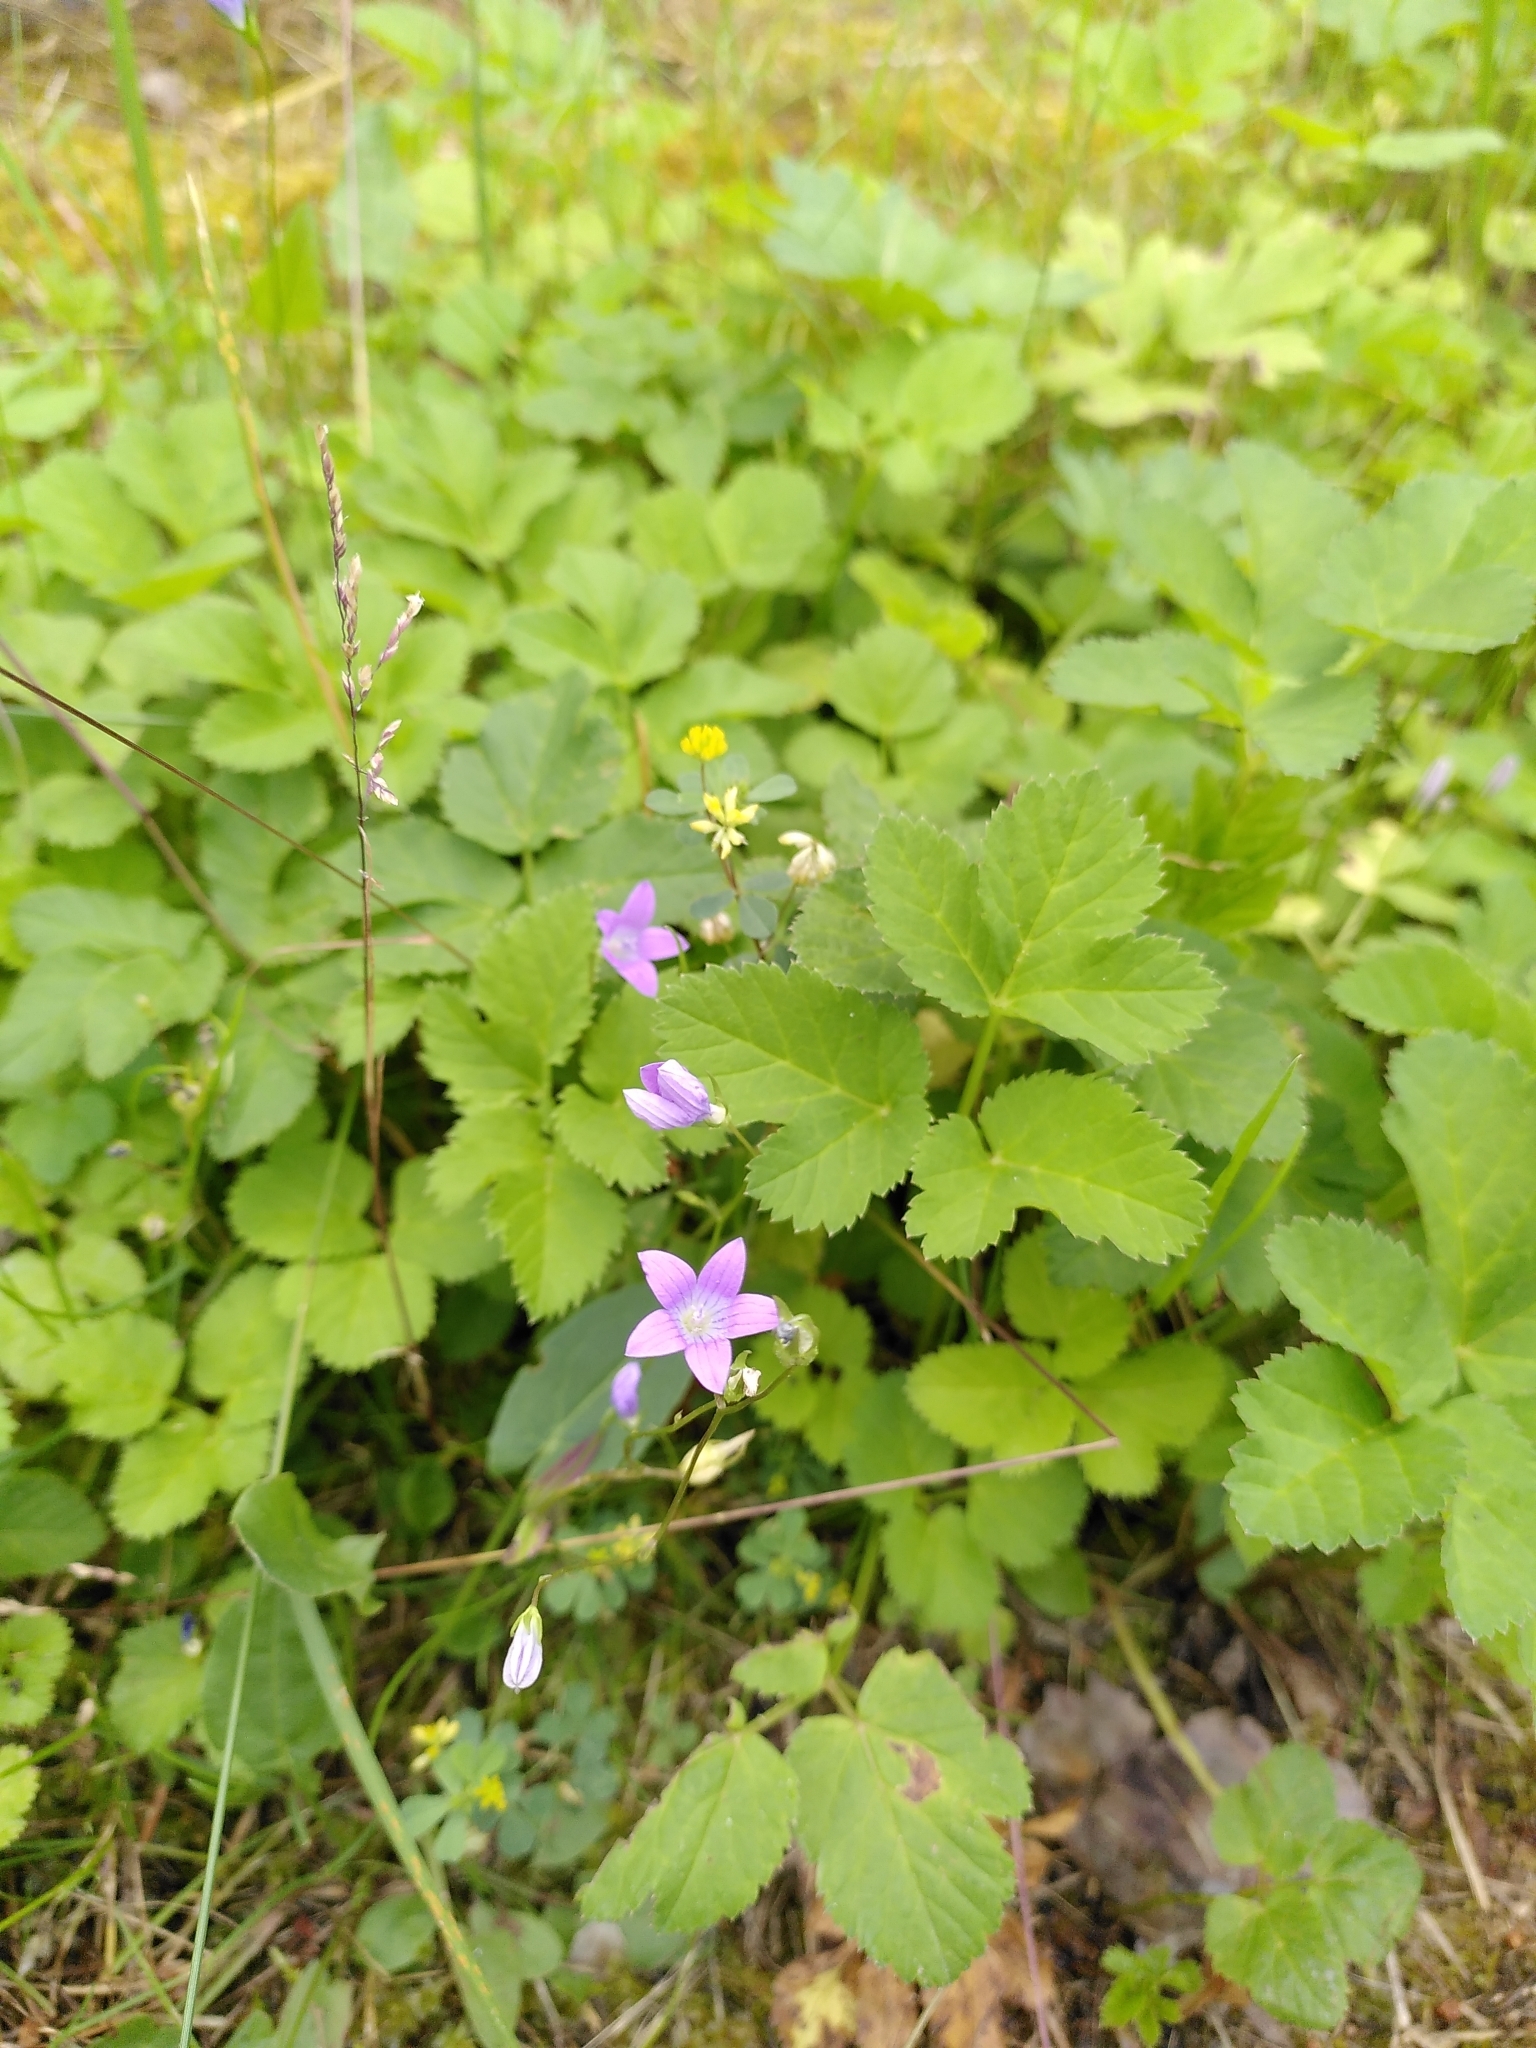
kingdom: Plantae
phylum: Tracheophyta
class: Magnoliopsida
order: Asterales
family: Campanulaceae
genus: Campanula
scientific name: Campanula patula
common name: Spreading bellflower
